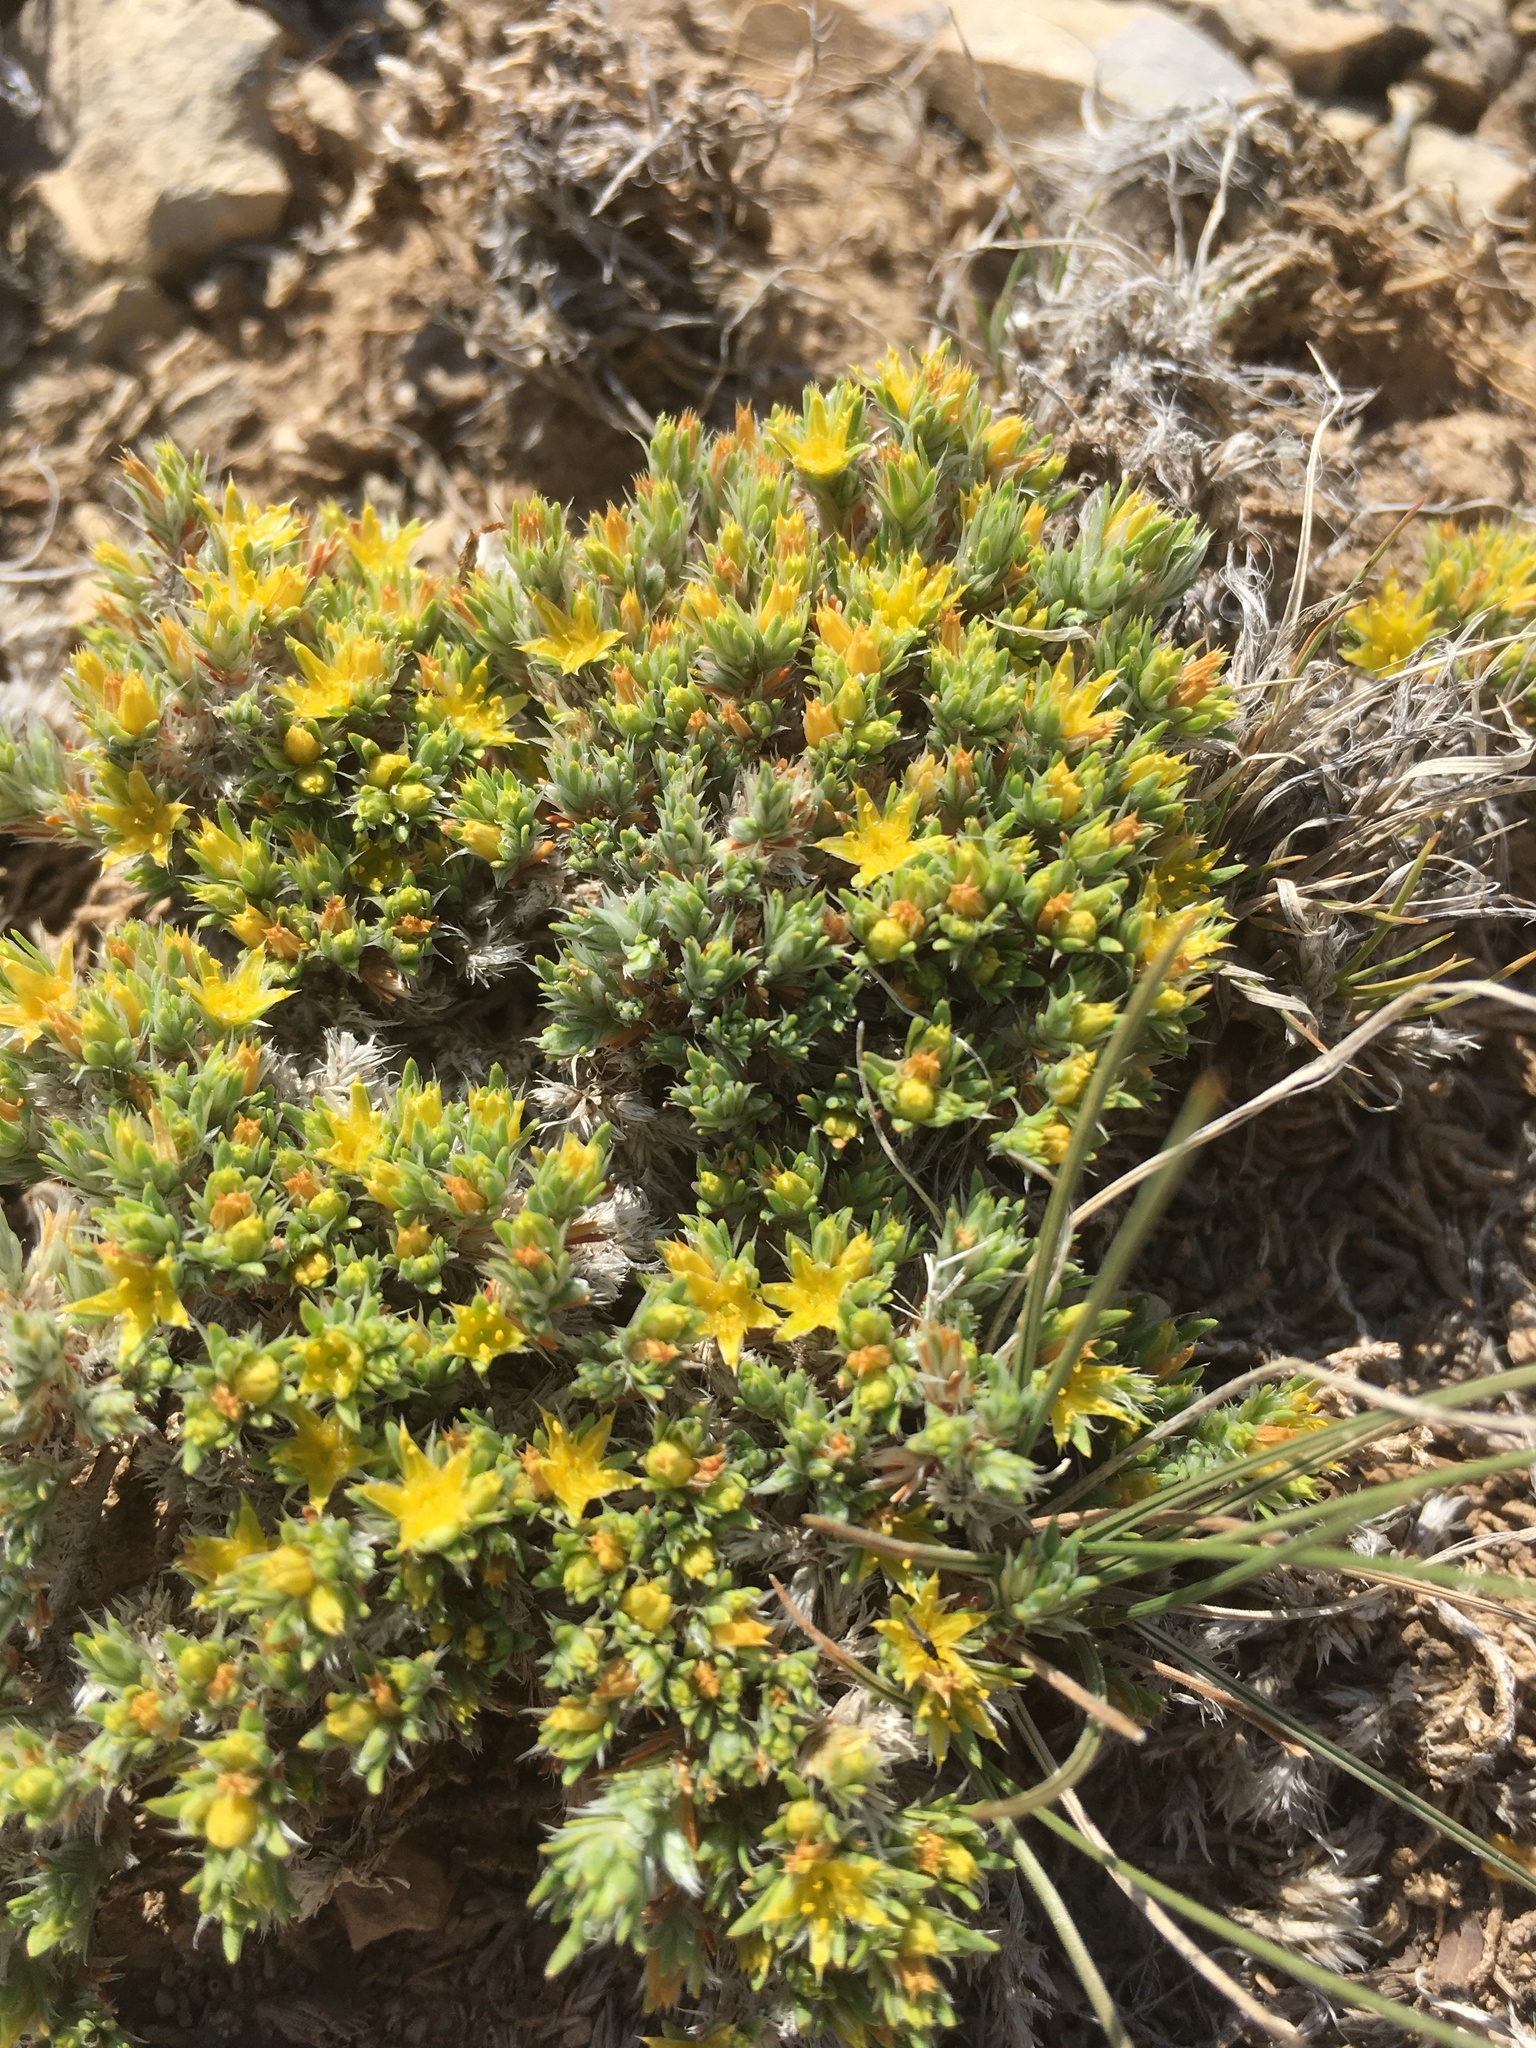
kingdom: Plantae
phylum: Tracheophyta
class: Magnoliopsida
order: Caryophyllales
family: Caryophyllaceae
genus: Paronychia
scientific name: Paronychia sessiliflora
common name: Creeping nailwort
